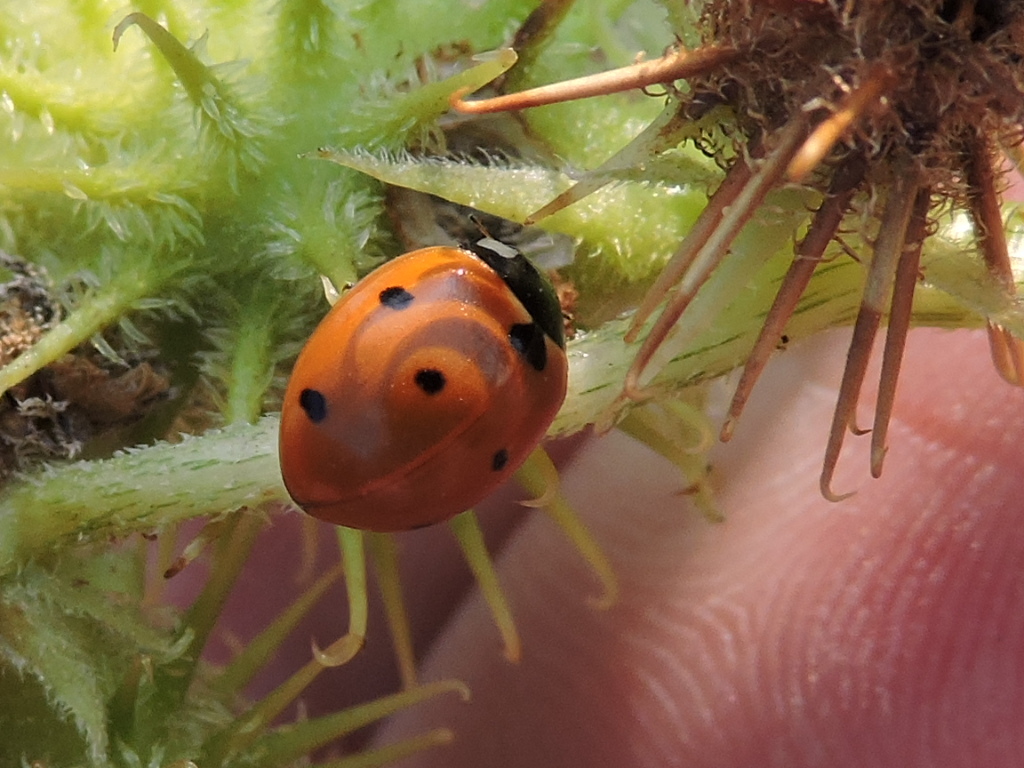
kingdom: Animalia
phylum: Arthropoda
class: Insecta
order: Coleoptera
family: Coccinellidae
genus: Coccinella
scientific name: Coccinella septempunctata
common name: Sevenspotted lady beetle
